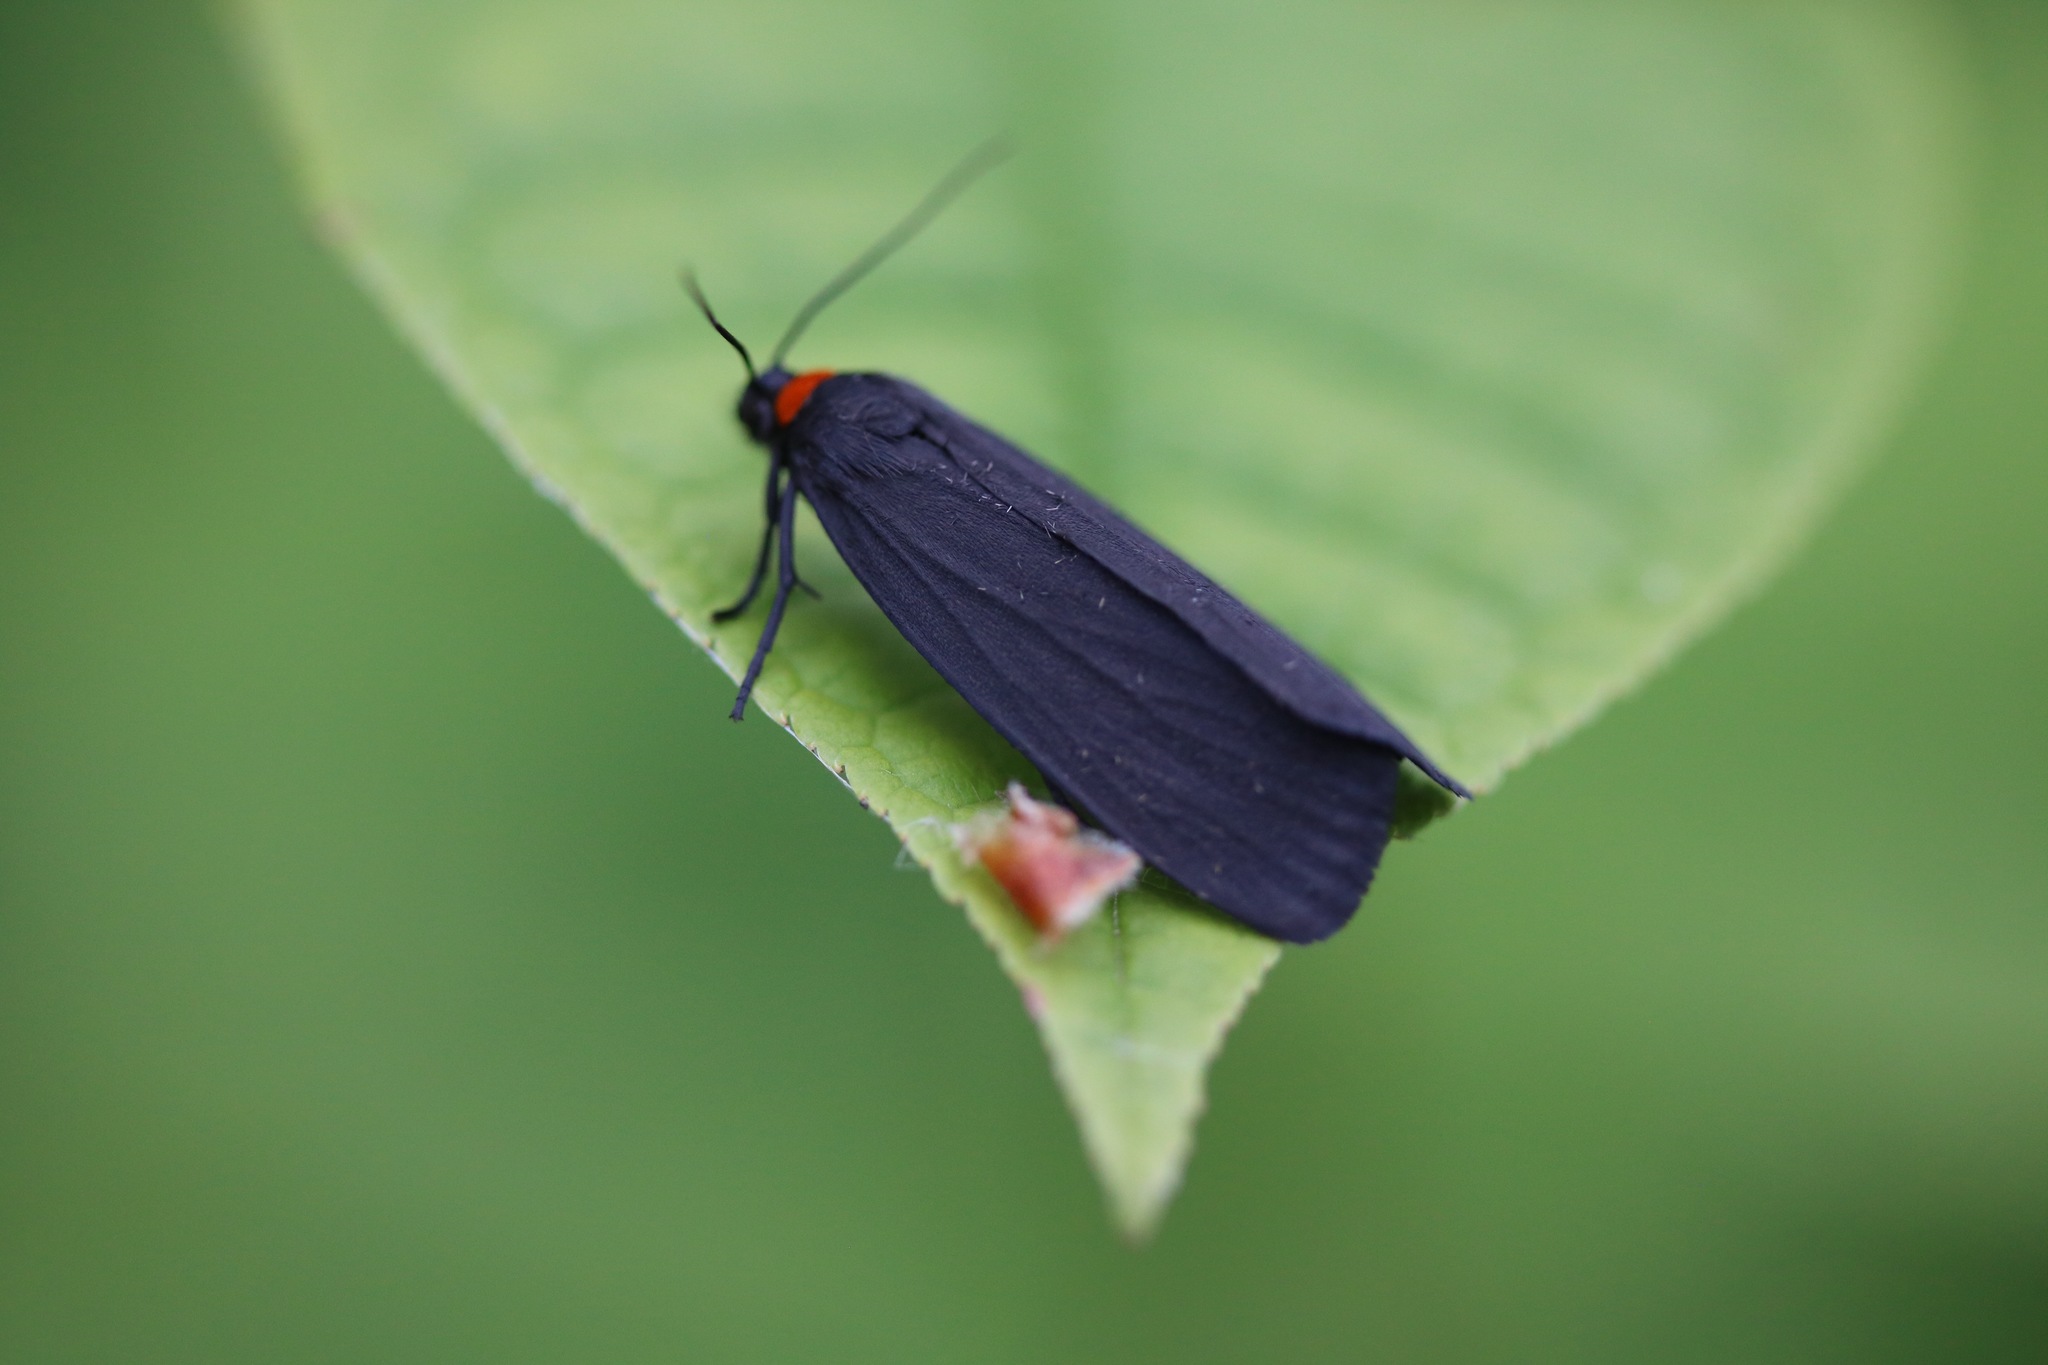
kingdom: Animalia
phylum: Arthropoda
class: Insecta
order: Lepidoptera
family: Erebidae
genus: Atolmis
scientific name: Atolmis rubricollis
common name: Red-necked footman
